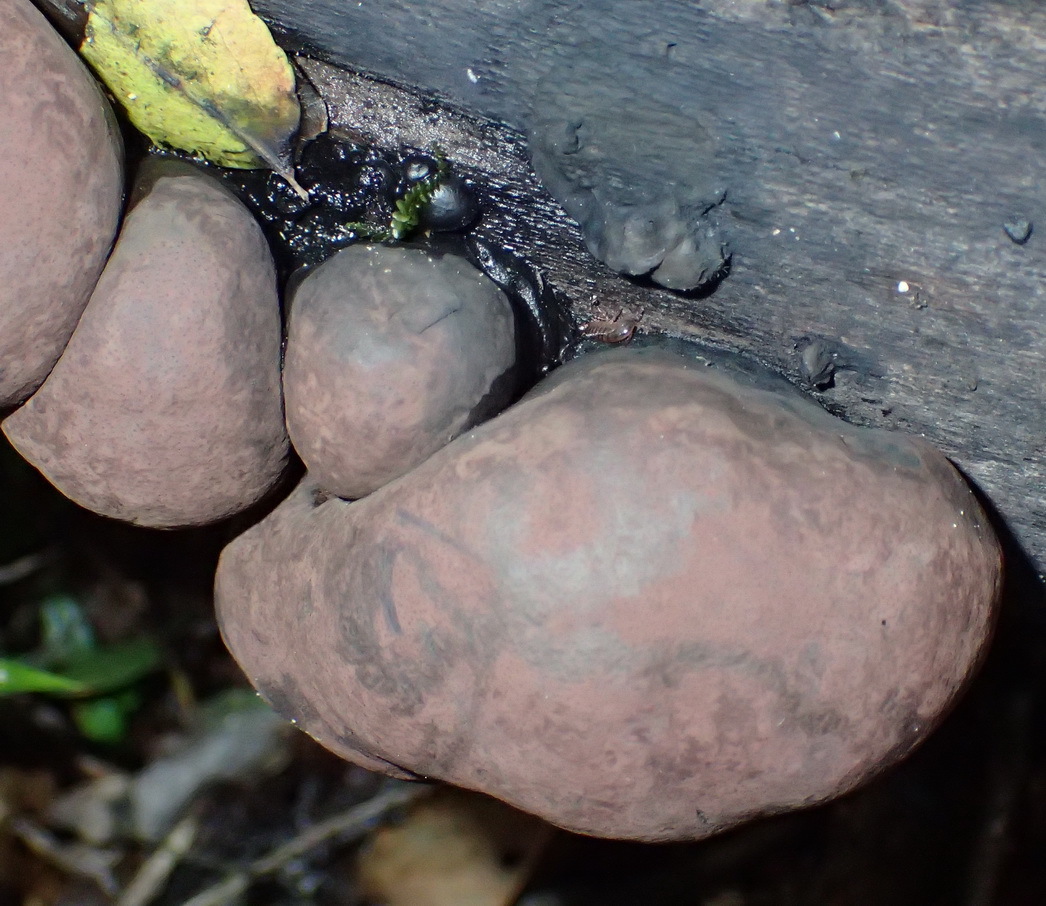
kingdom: Fungi
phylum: Ascomycota
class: Sordariomycetes
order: Xylariales
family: Hypoxylaceae
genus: Daldinia
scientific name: Daldinia concentrica
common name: Cramp balls
